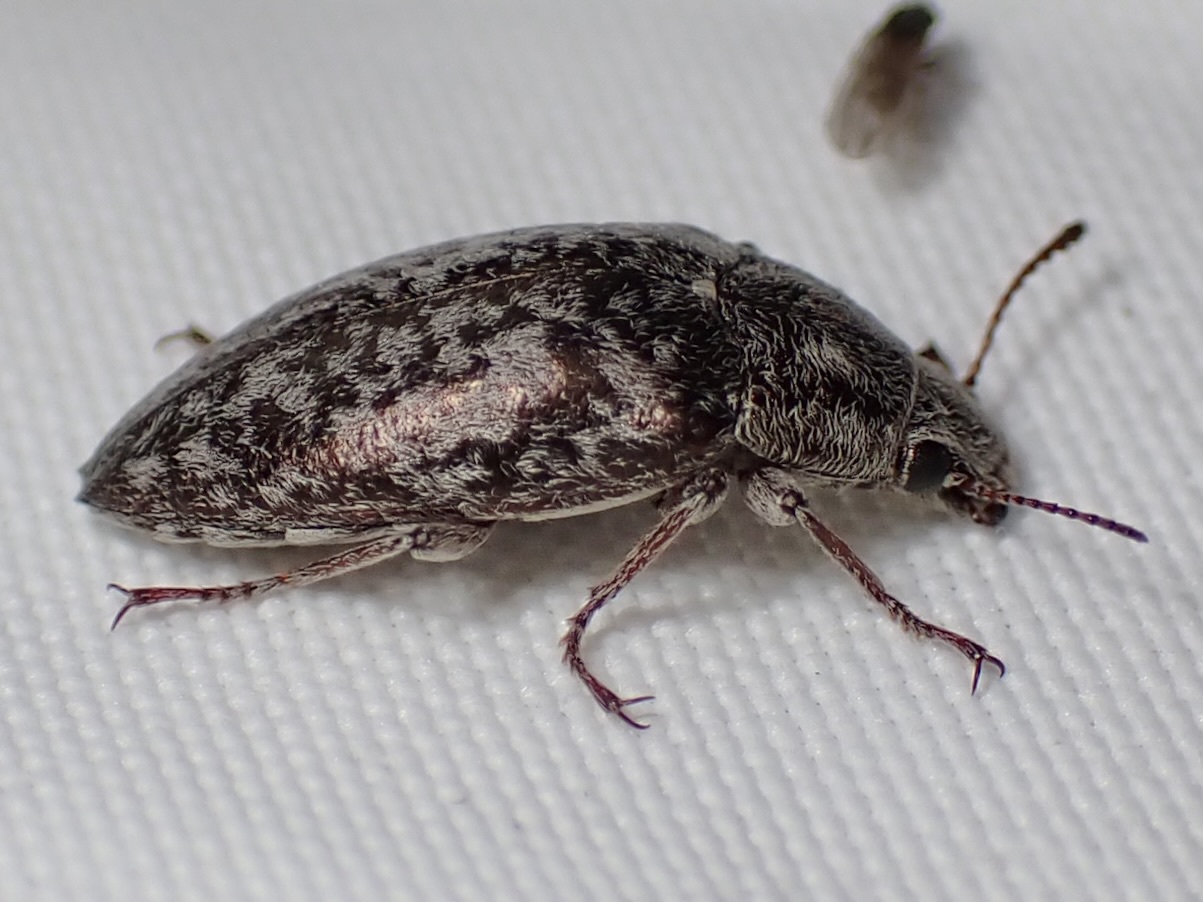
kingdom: Animalia
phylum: Arthropoda
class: Insecta
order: Coleoptera
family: Tenebrionidae
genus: Pechalius
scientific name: Pechalius dentiger
